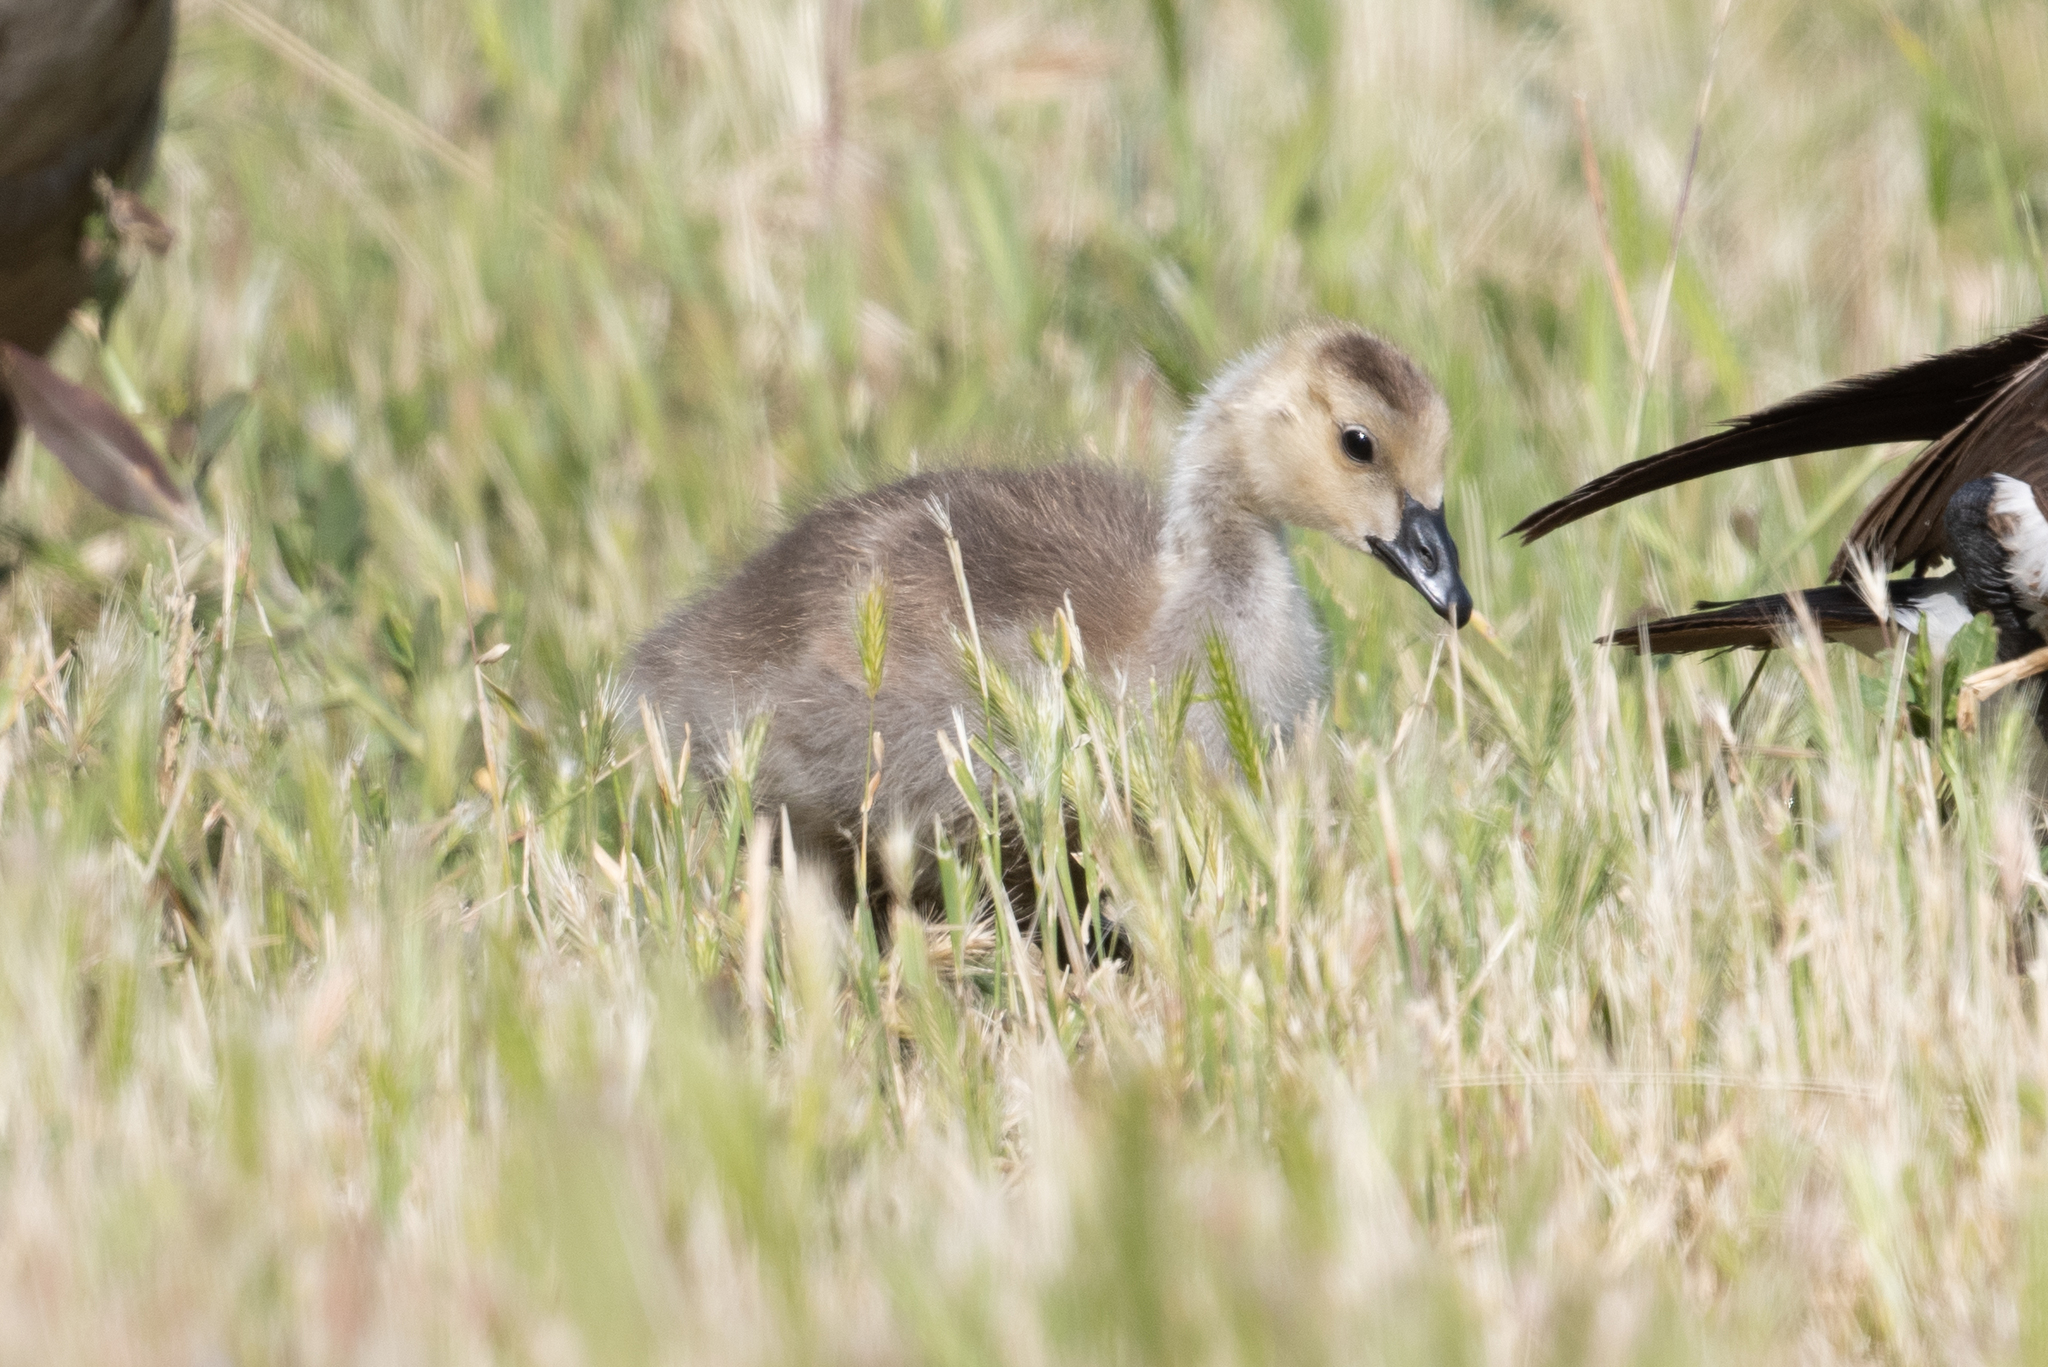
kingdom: Animalia
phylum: Chordata
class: Aves
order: Anseriformes
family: Anatidae
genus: Branta
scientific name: Branta canadensis
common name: Canada goose
